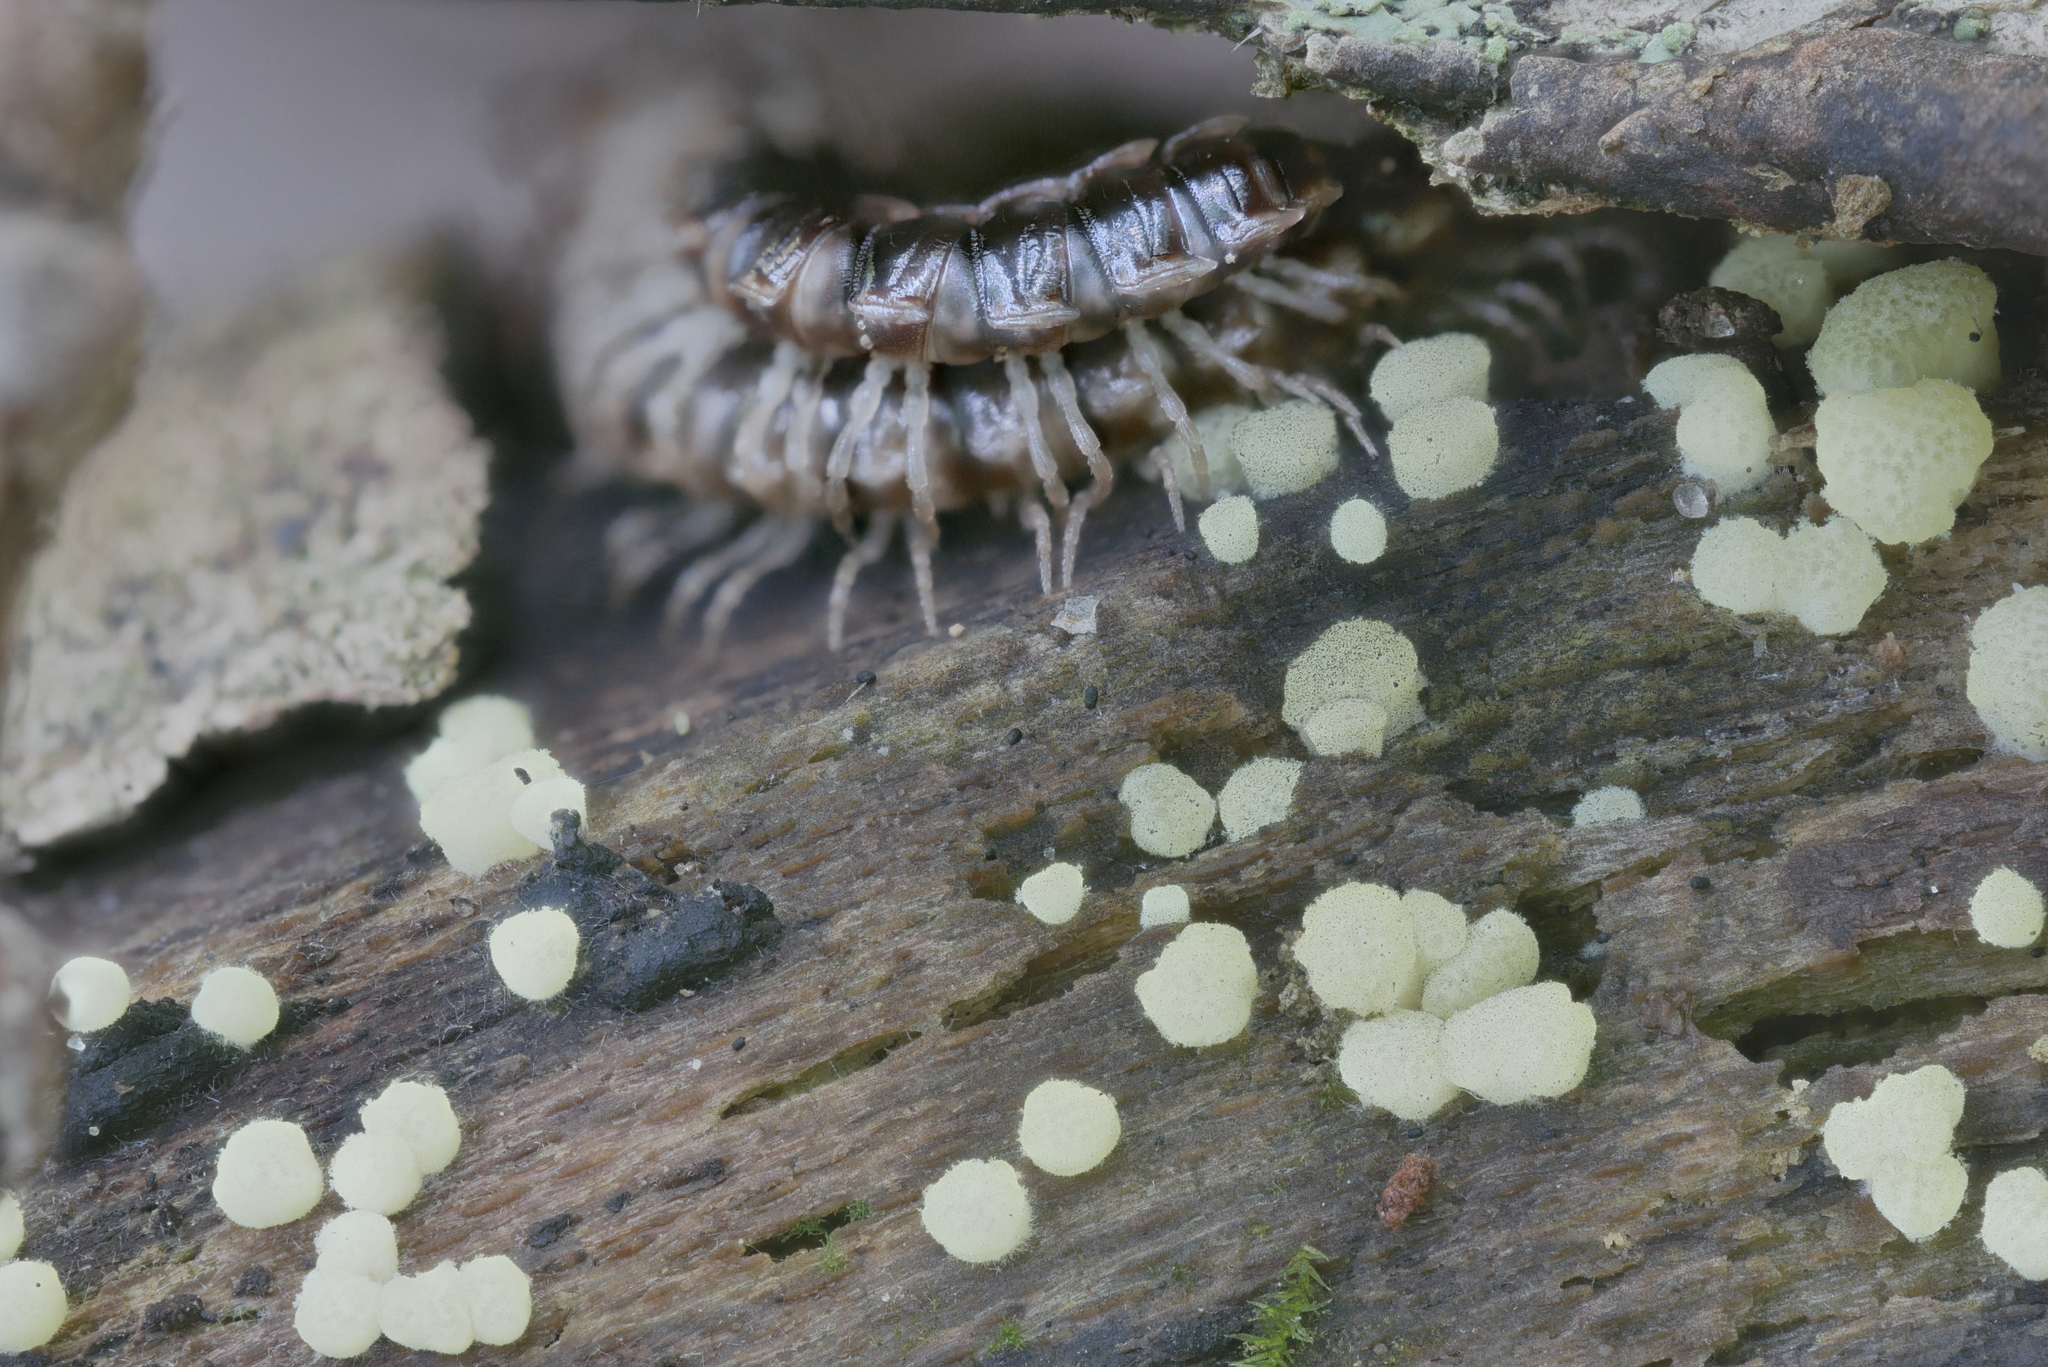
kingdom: Fungi
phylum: Ascomycota
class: Sordariomycetes
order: Hypocreales
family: Hypocreaceae
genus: Trichoderma
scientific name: Trichoderma chlorosporum
